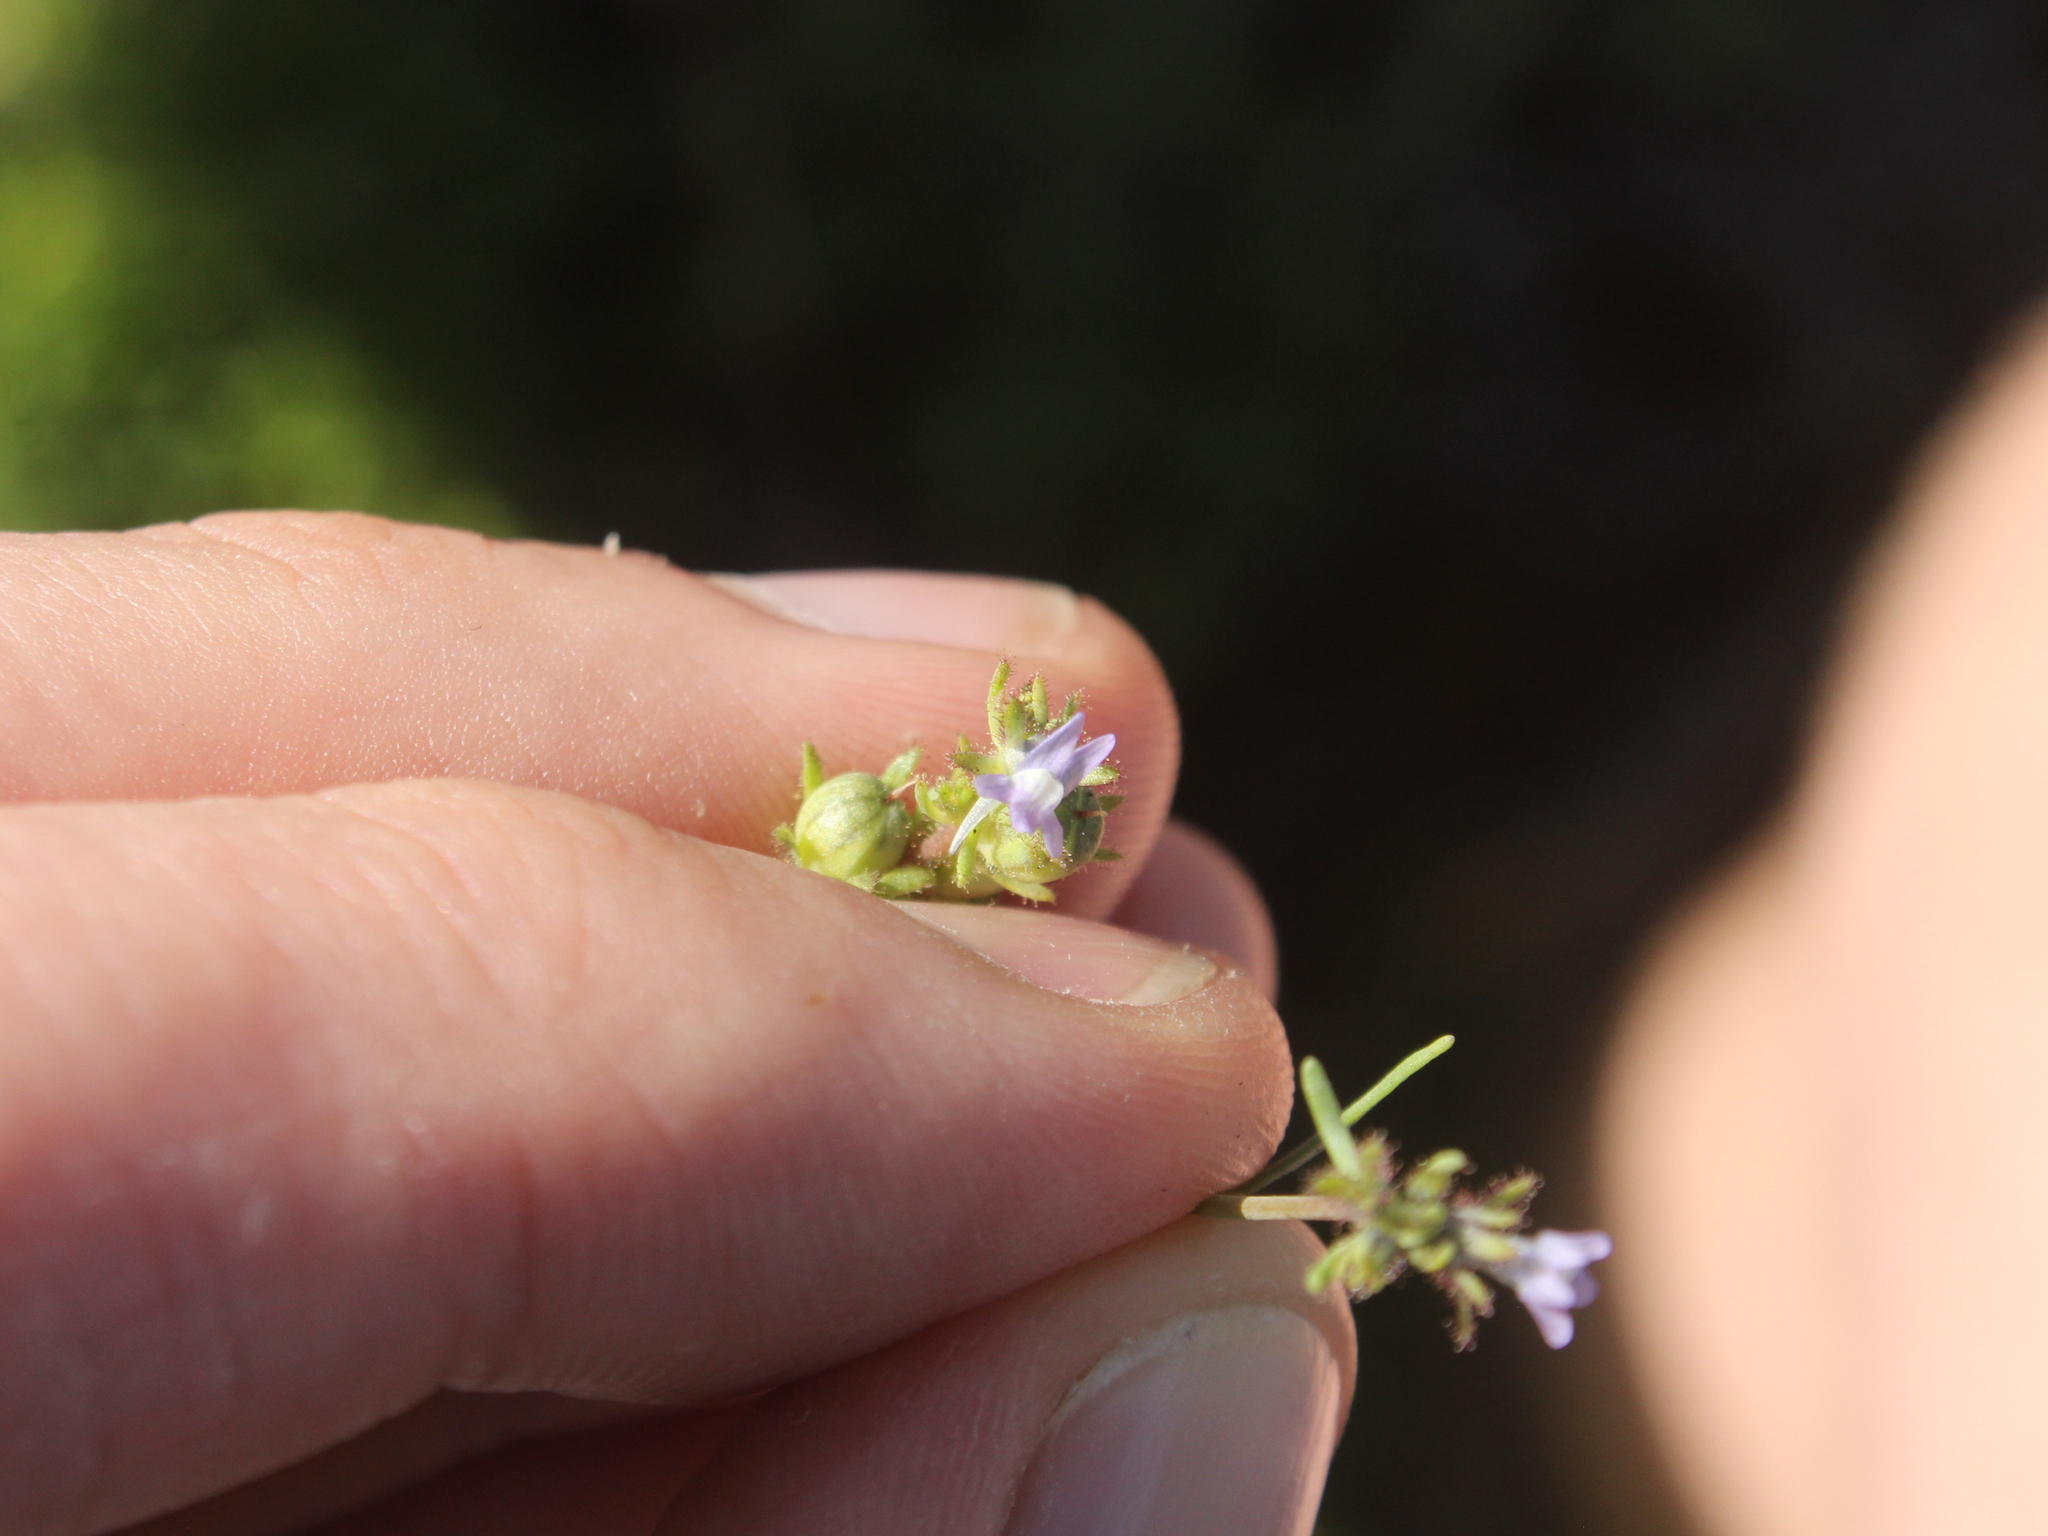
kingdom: Plantae
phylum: Tracheophyta
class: Magnoliopsida
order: Lamiales
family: Plantaginaceae
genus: Linaria
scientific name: Linaria arvensis
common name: Corn toadflax
